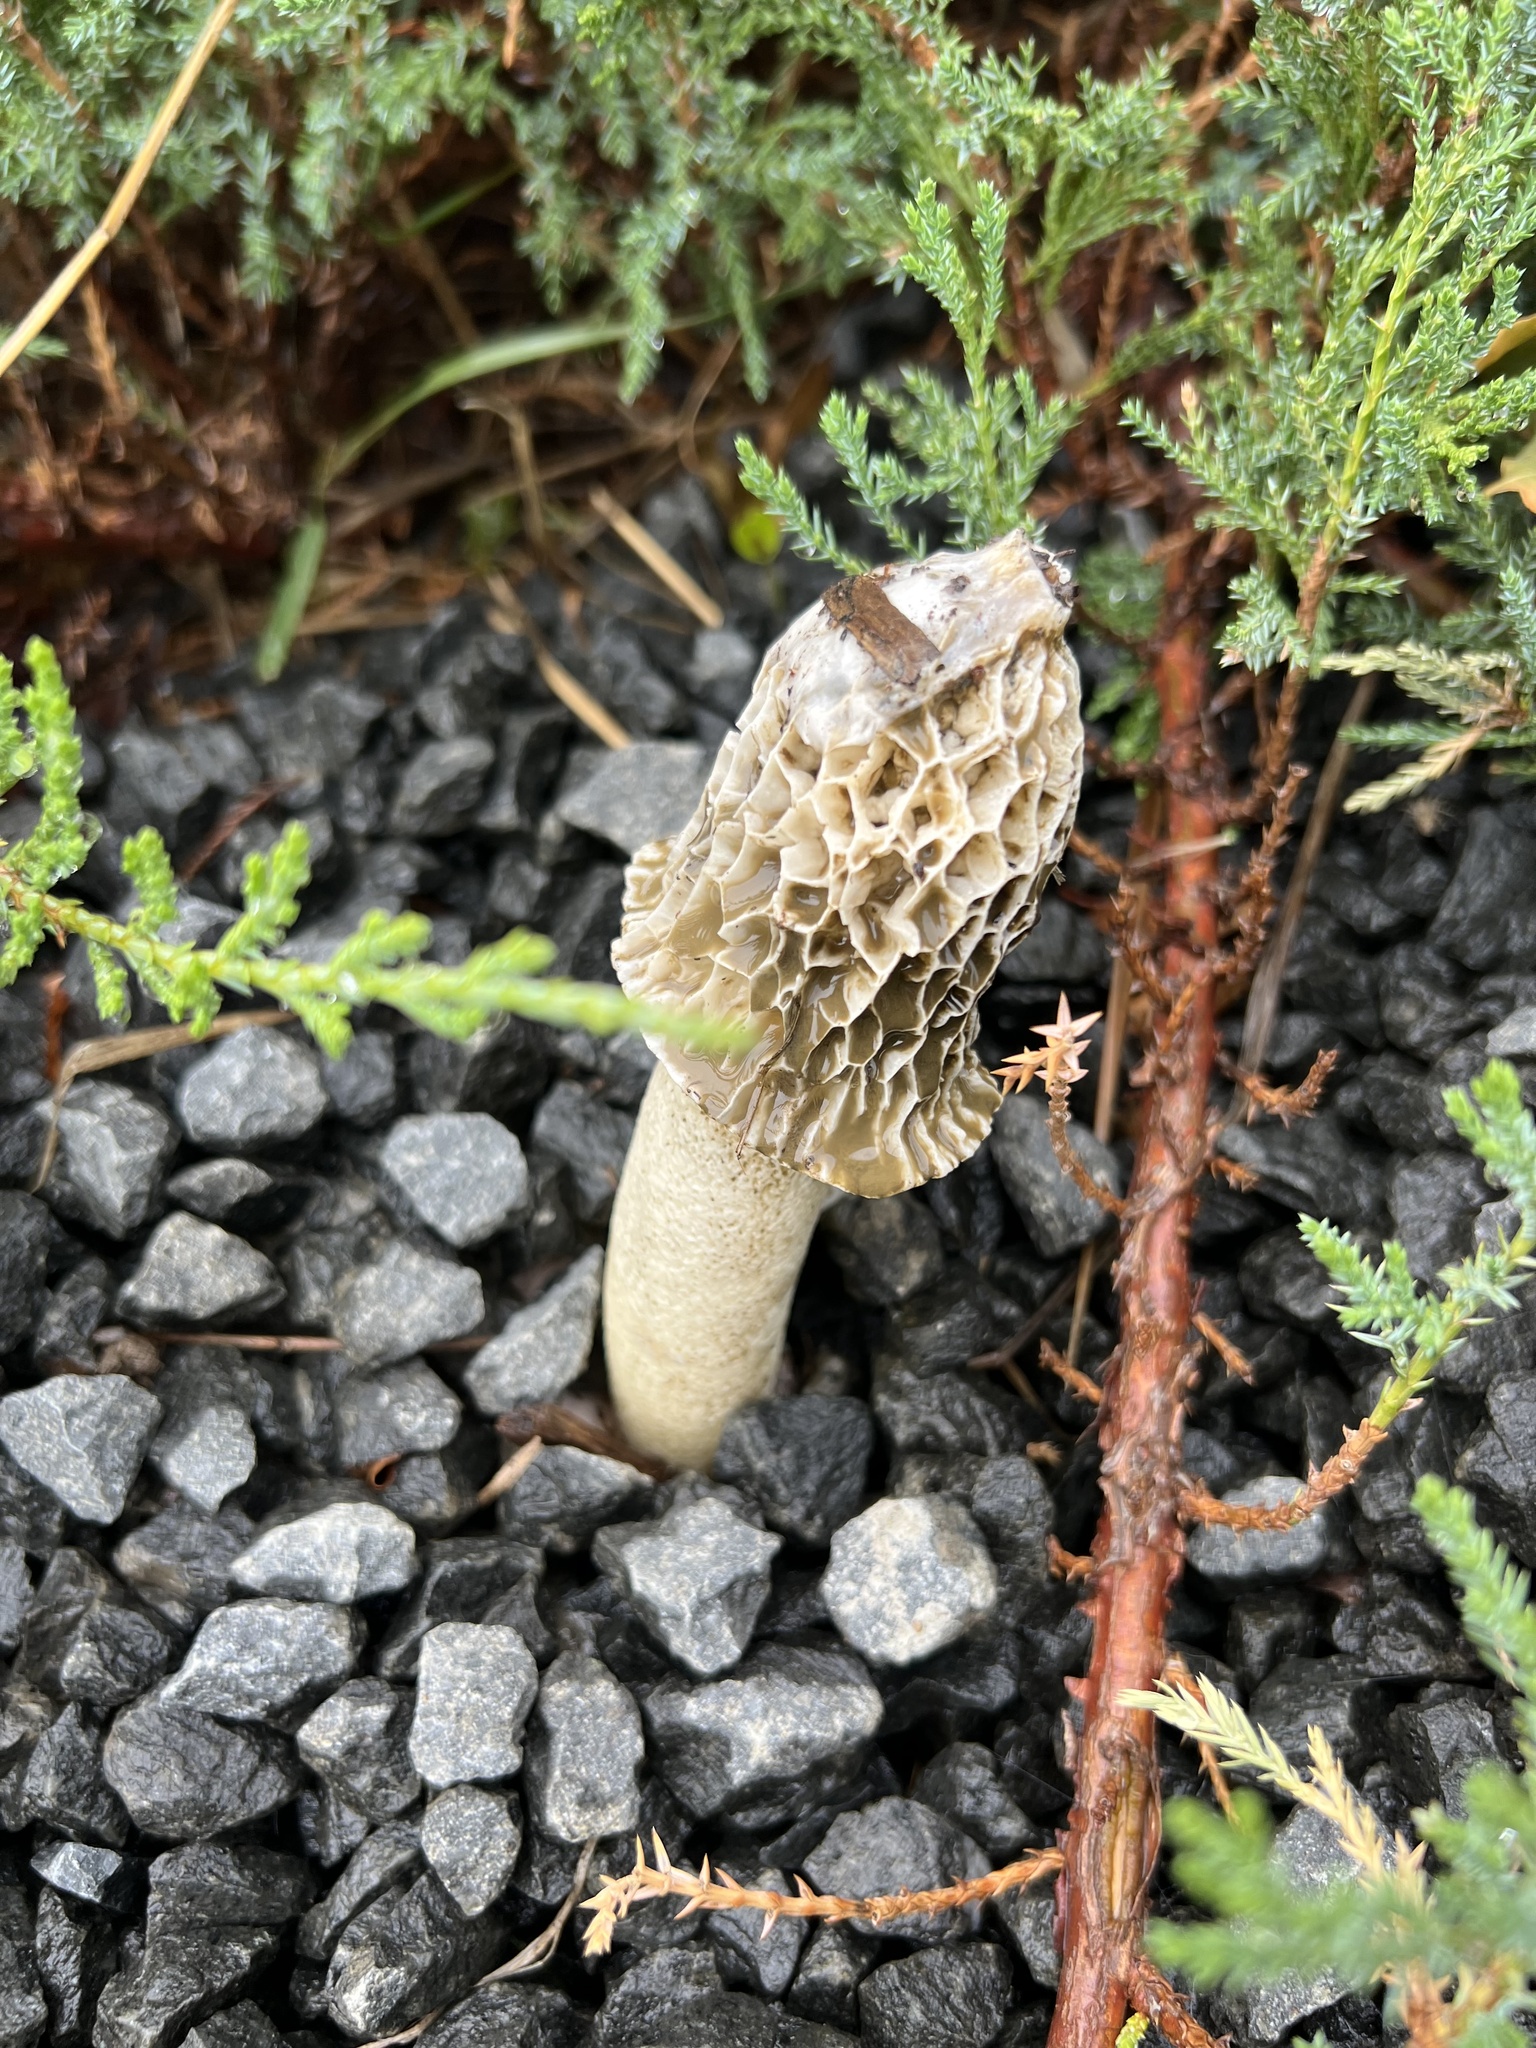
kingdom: Fungi
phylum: Basidiomycota
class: Agaricomycetes
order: Phallales
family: Phallaceae
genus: Phallus
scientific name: Phallus hadriani
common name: Sand stinkhorn
